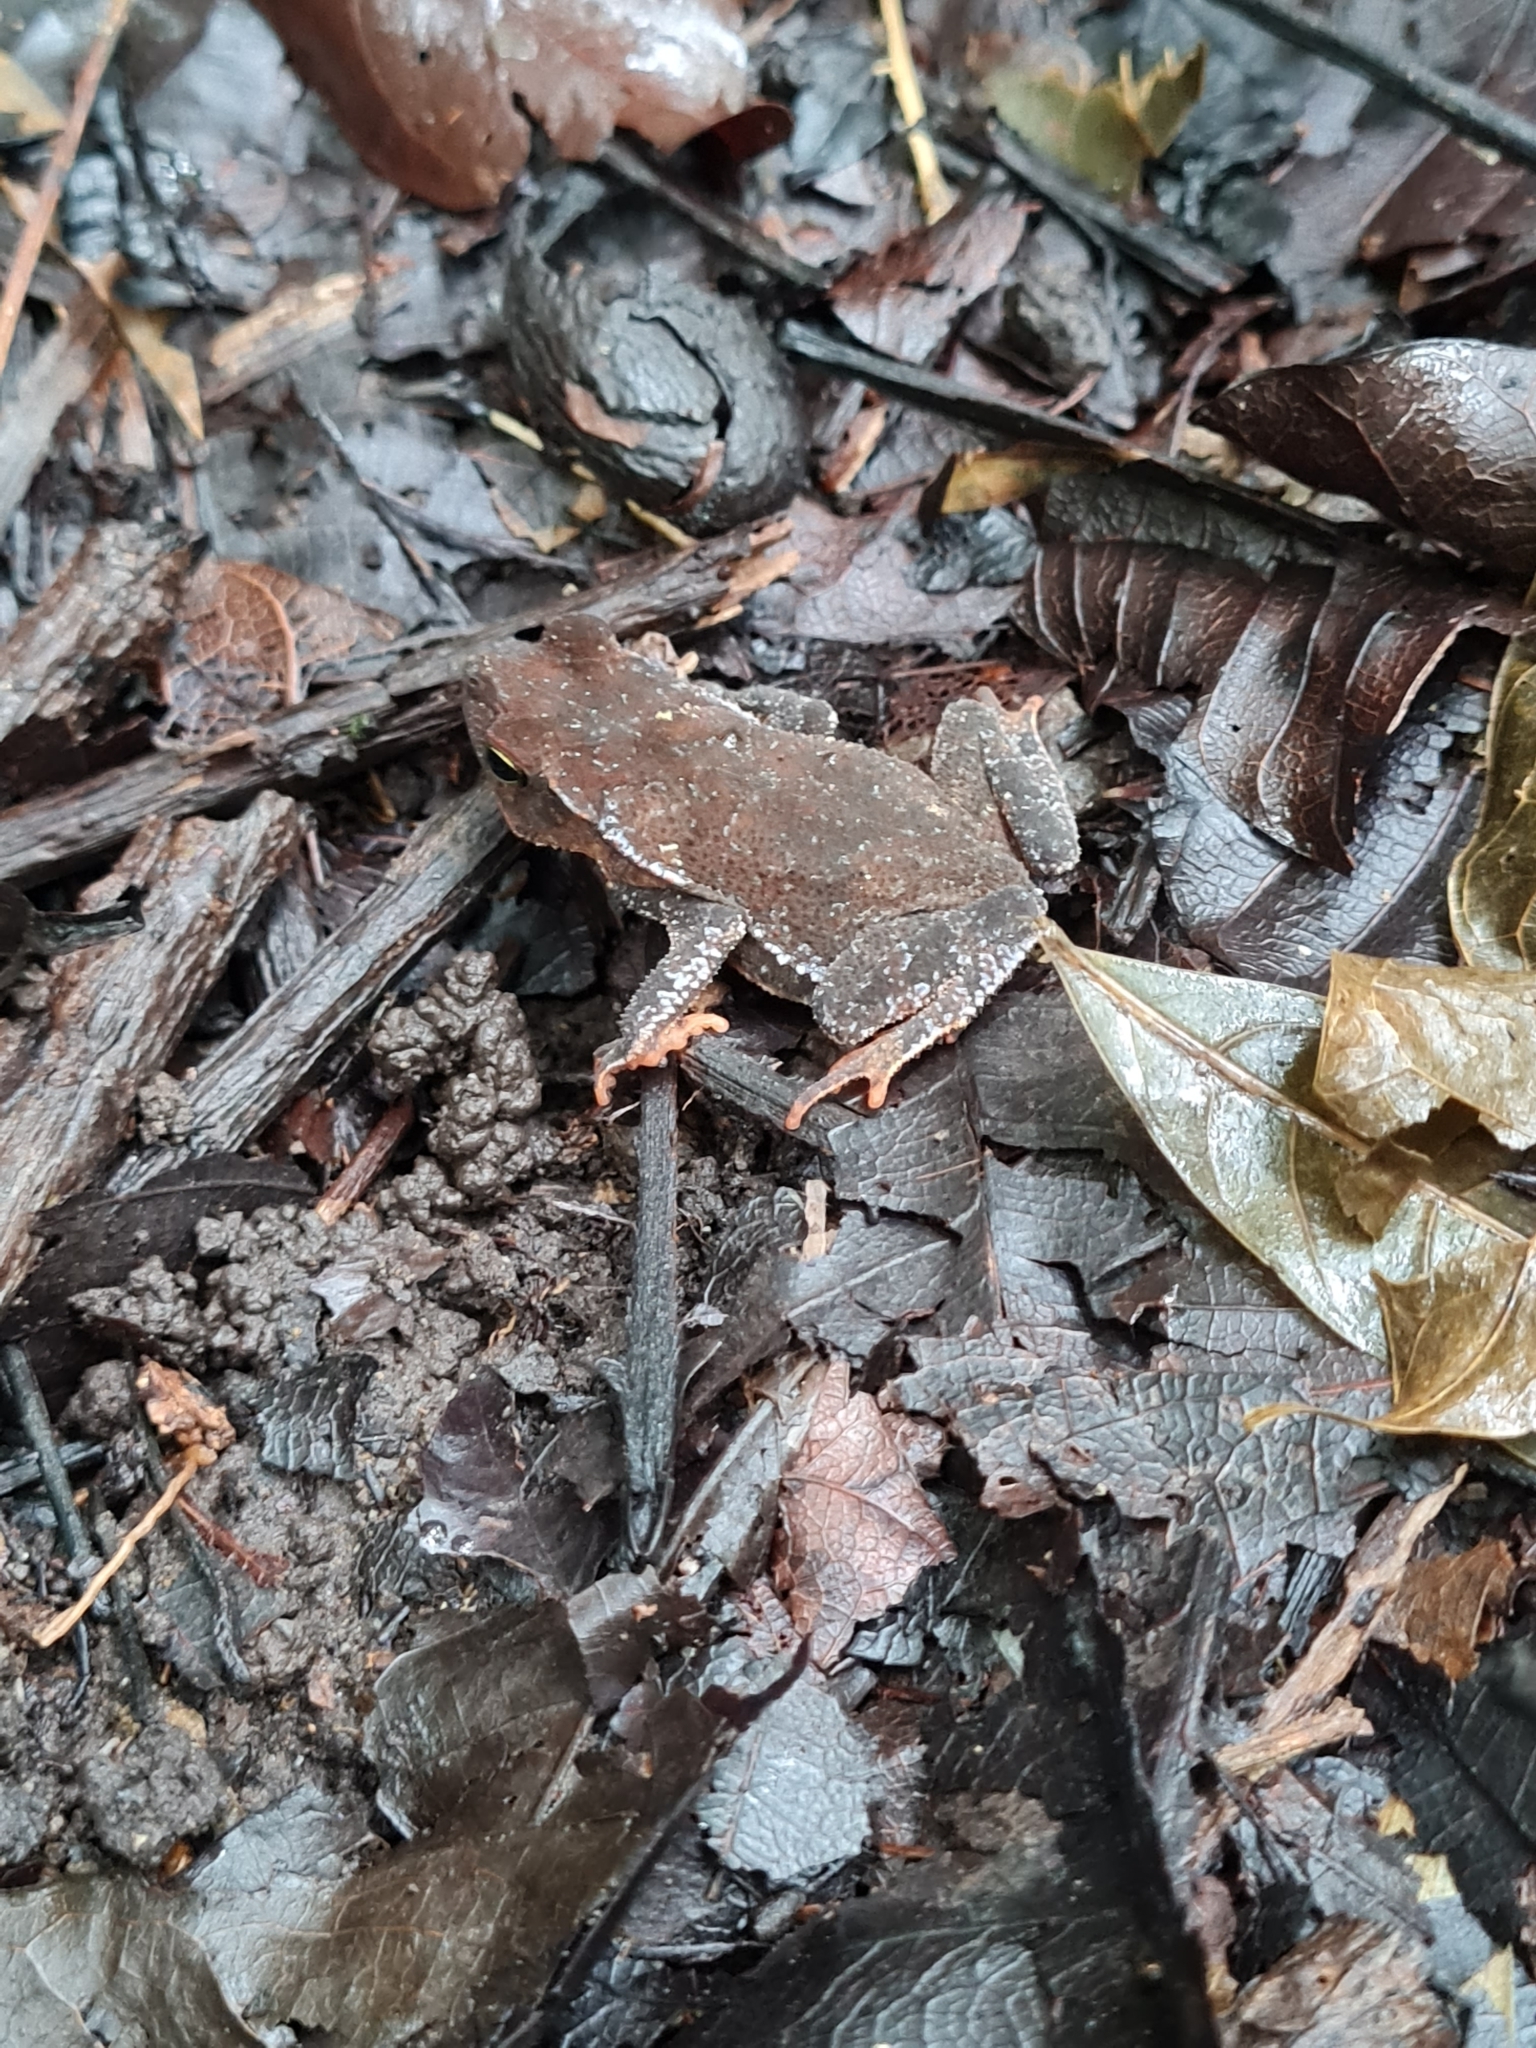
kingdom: Animalia
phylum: Chordata
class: Amphibia
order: Anura
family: Bufonidae
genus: Rhinella
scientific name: Rhinella alata
